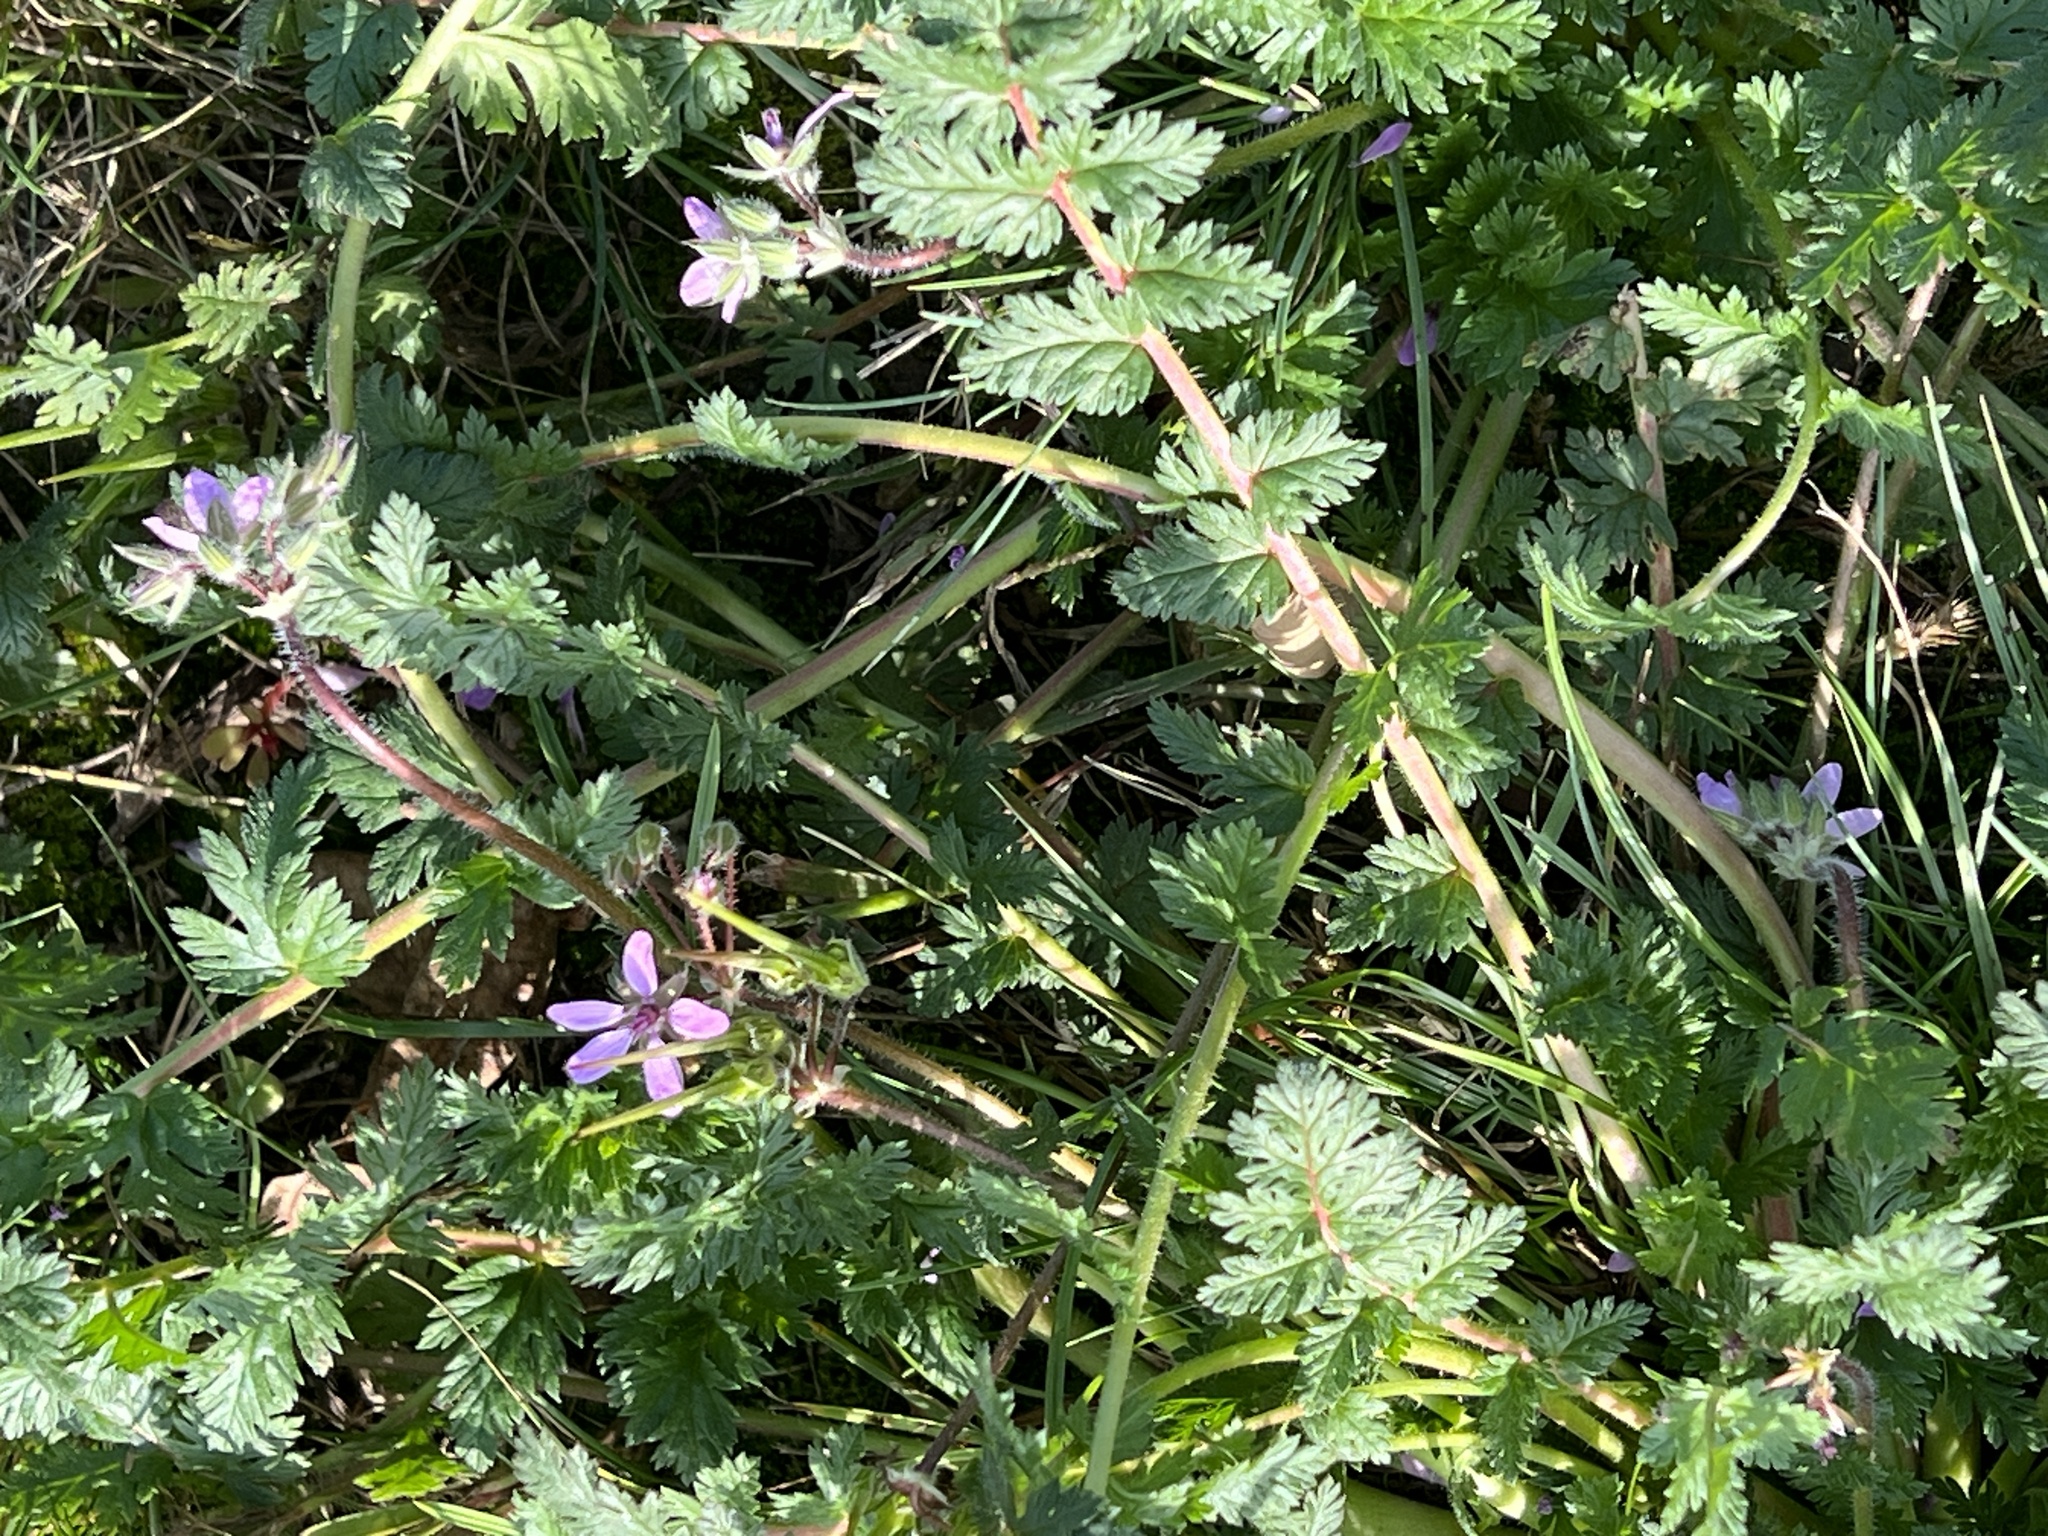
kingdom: Plantae
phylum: Tracheophyta
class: Magnoliopsida
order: Geraniales
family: Geraniaceae
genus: Erodium
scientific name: Erodium cicutarium
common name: Common stork's-bill
